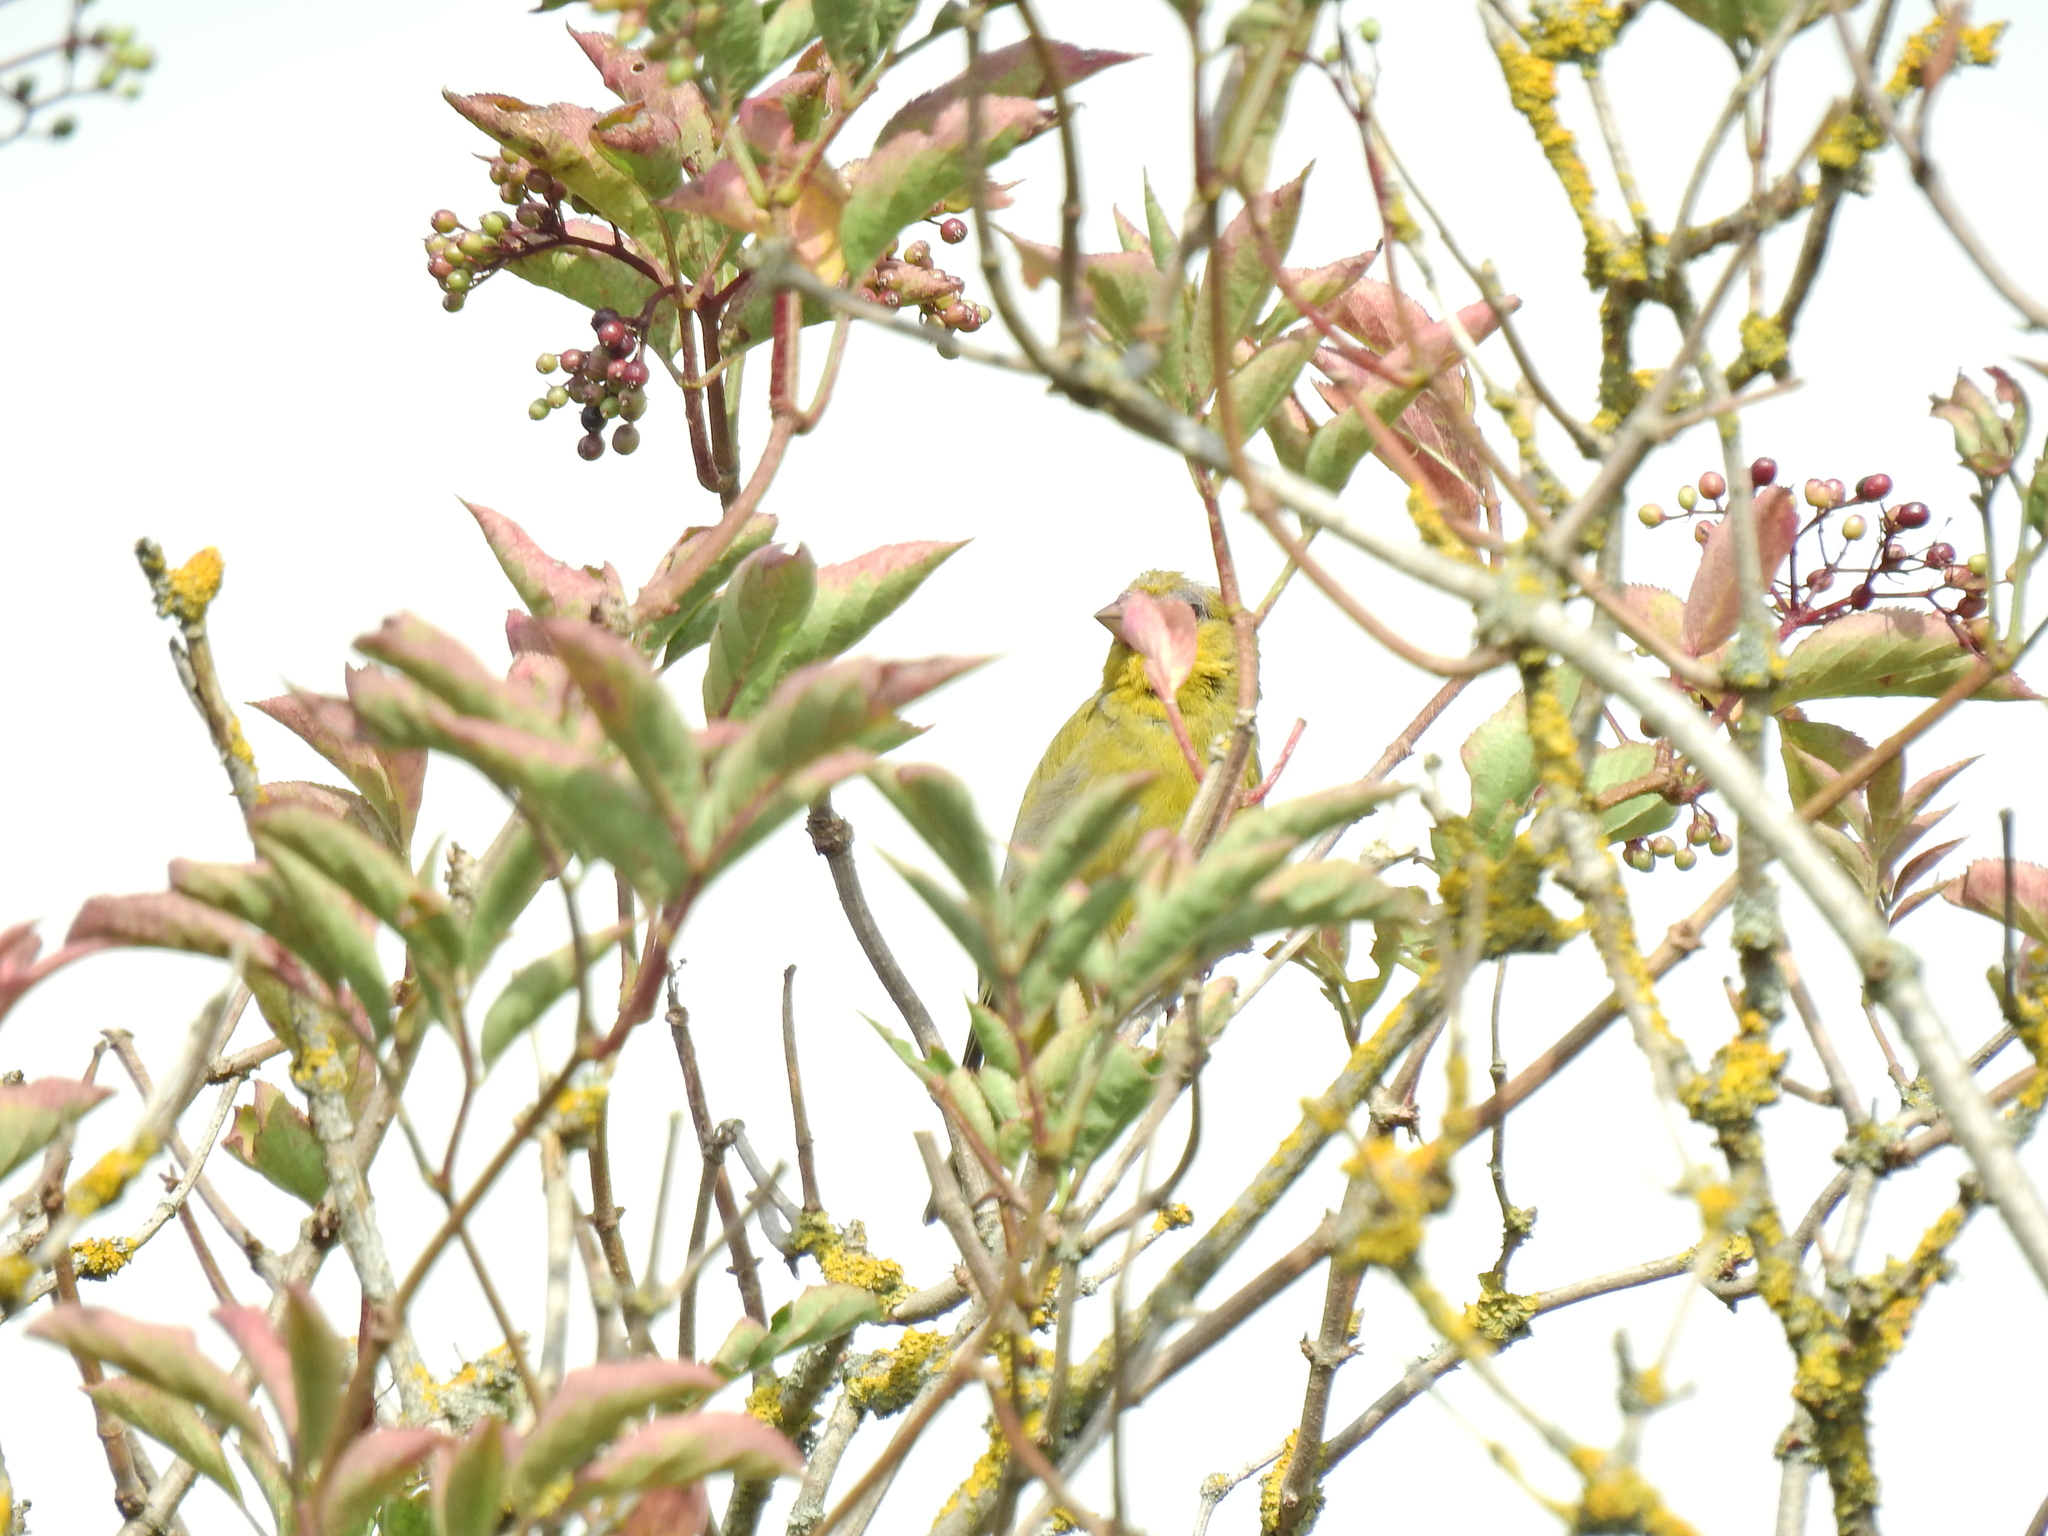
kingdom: Plantae
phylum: Tracheophyta
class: Liliopsida
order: Poales
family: Poaceae
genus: Chloris
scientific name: Chloris chloris
